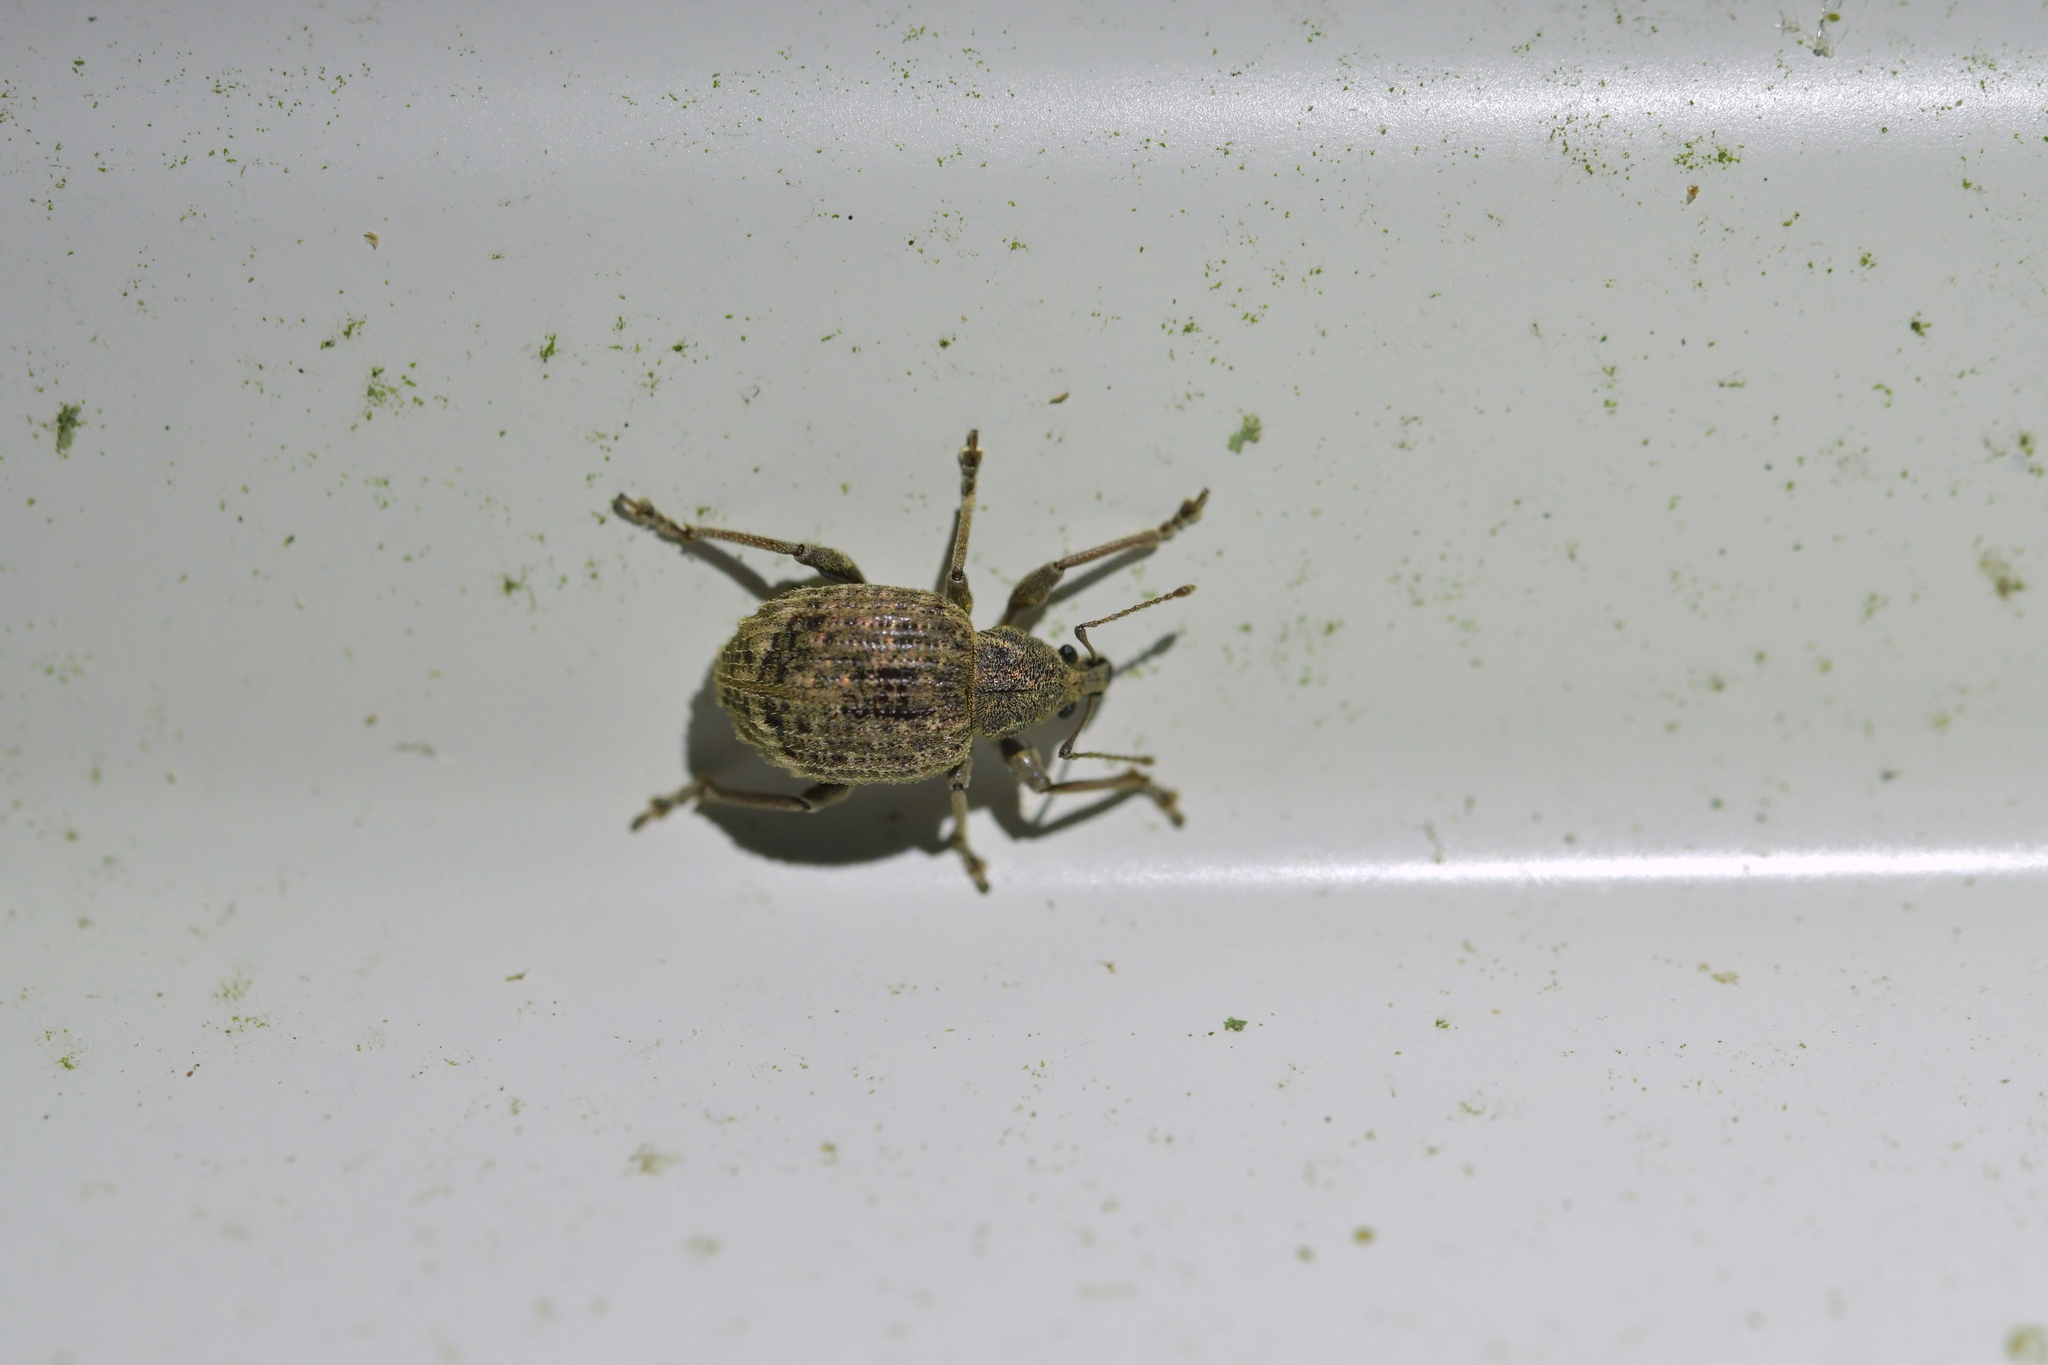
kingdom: Animalia
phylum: Arthropoda
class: Insecta
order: Coleoptera
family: Curculionidae
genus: Phlyctinus
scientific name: Phlyctinus callosus
